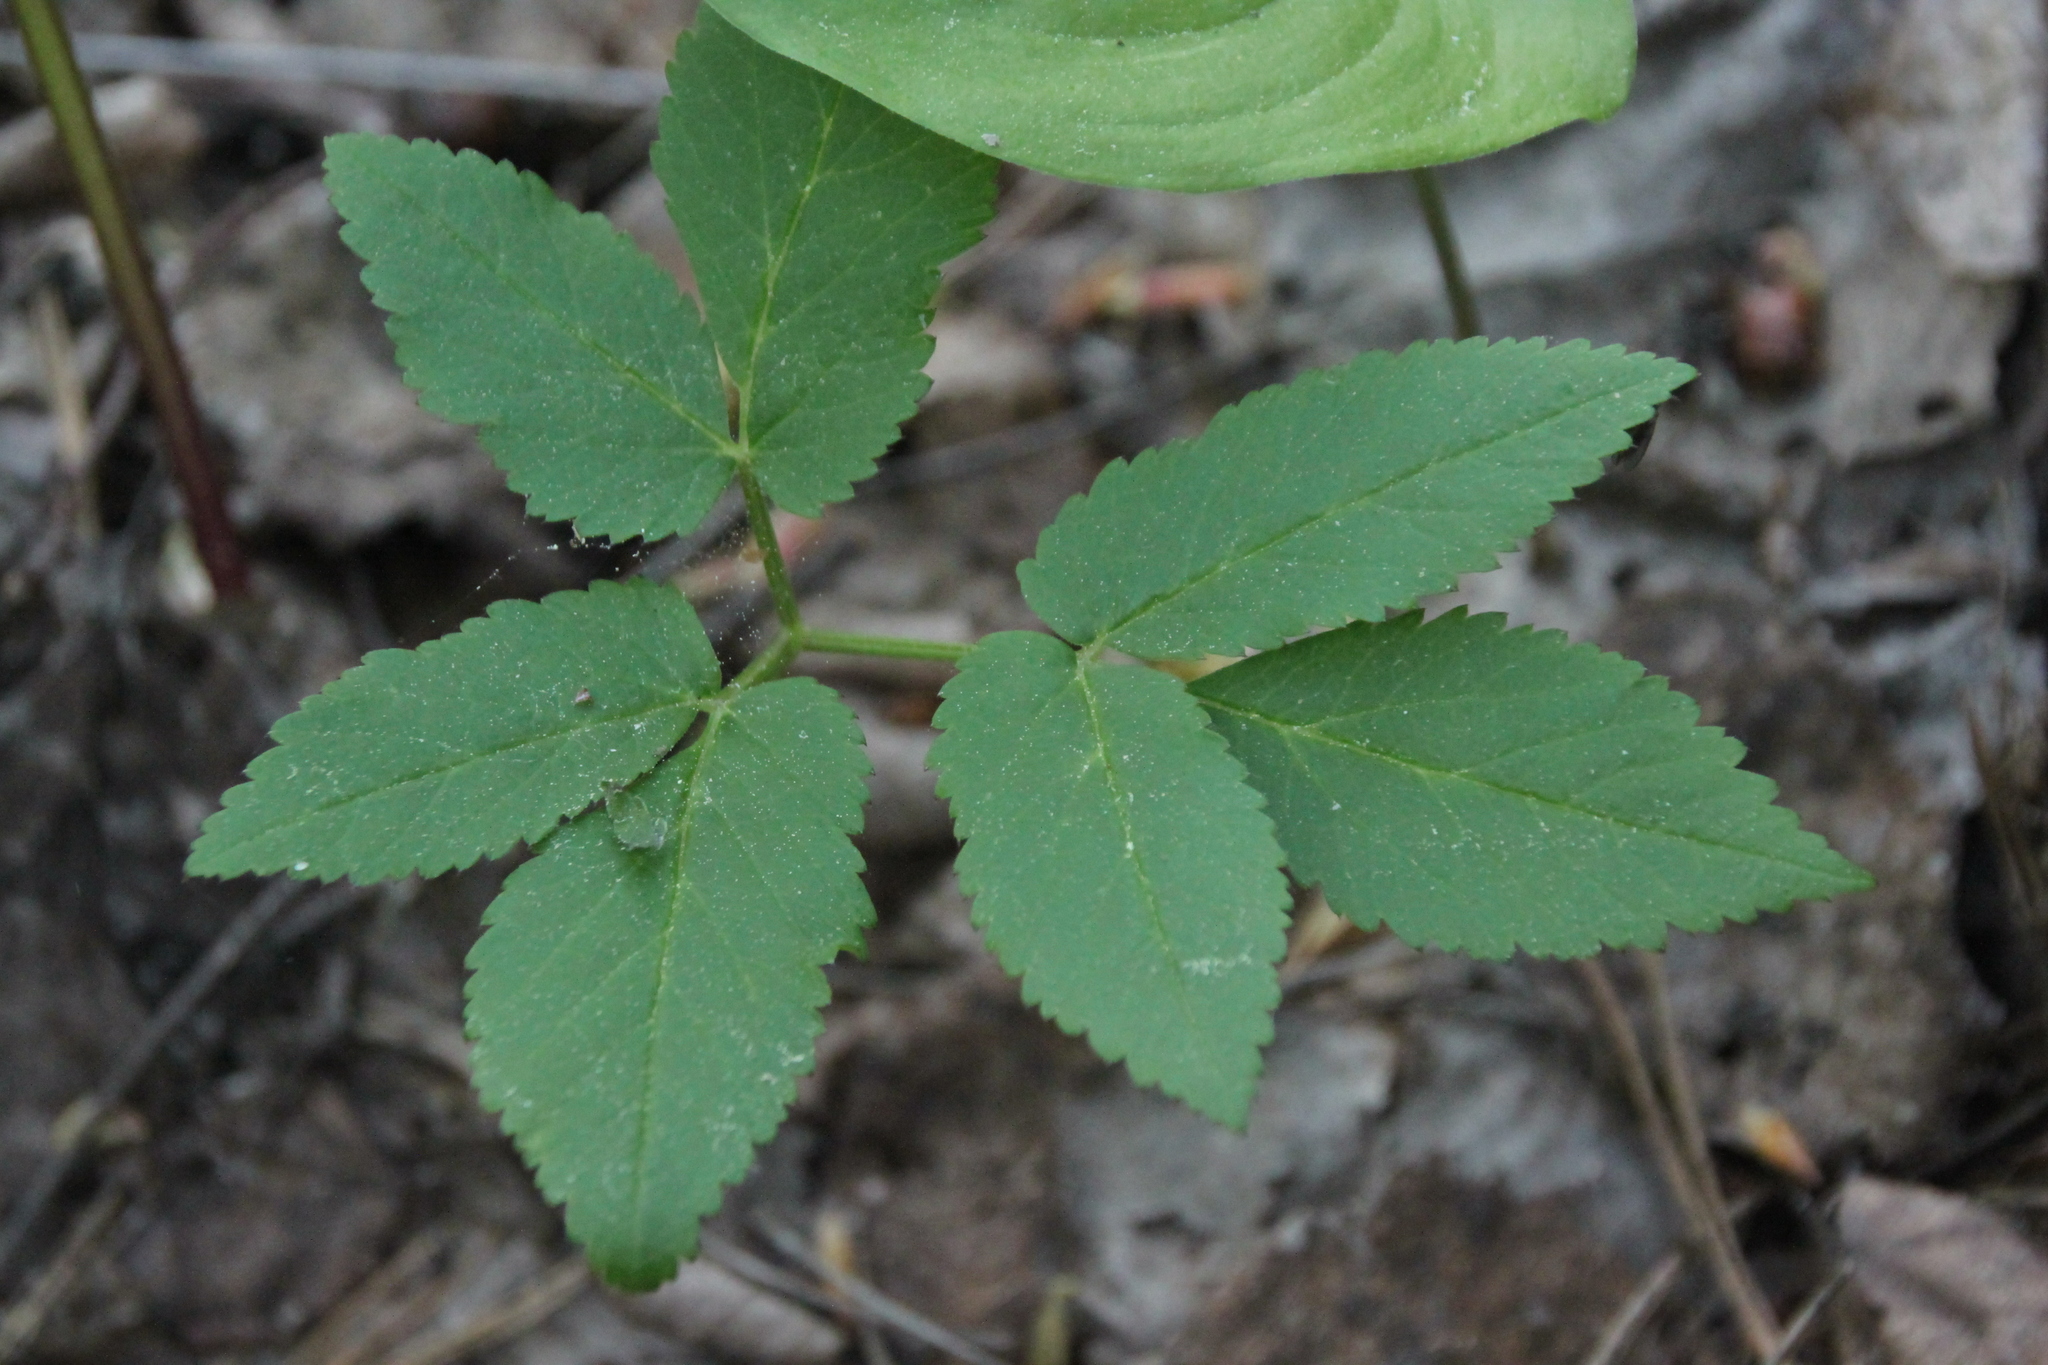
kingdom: Plantae
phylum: Tracheophyta
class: Magnoliopsida
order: Apiales
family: Apiaceae
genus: Aegopodium
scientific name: Aegopodium podagraria
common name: Ground-elder
